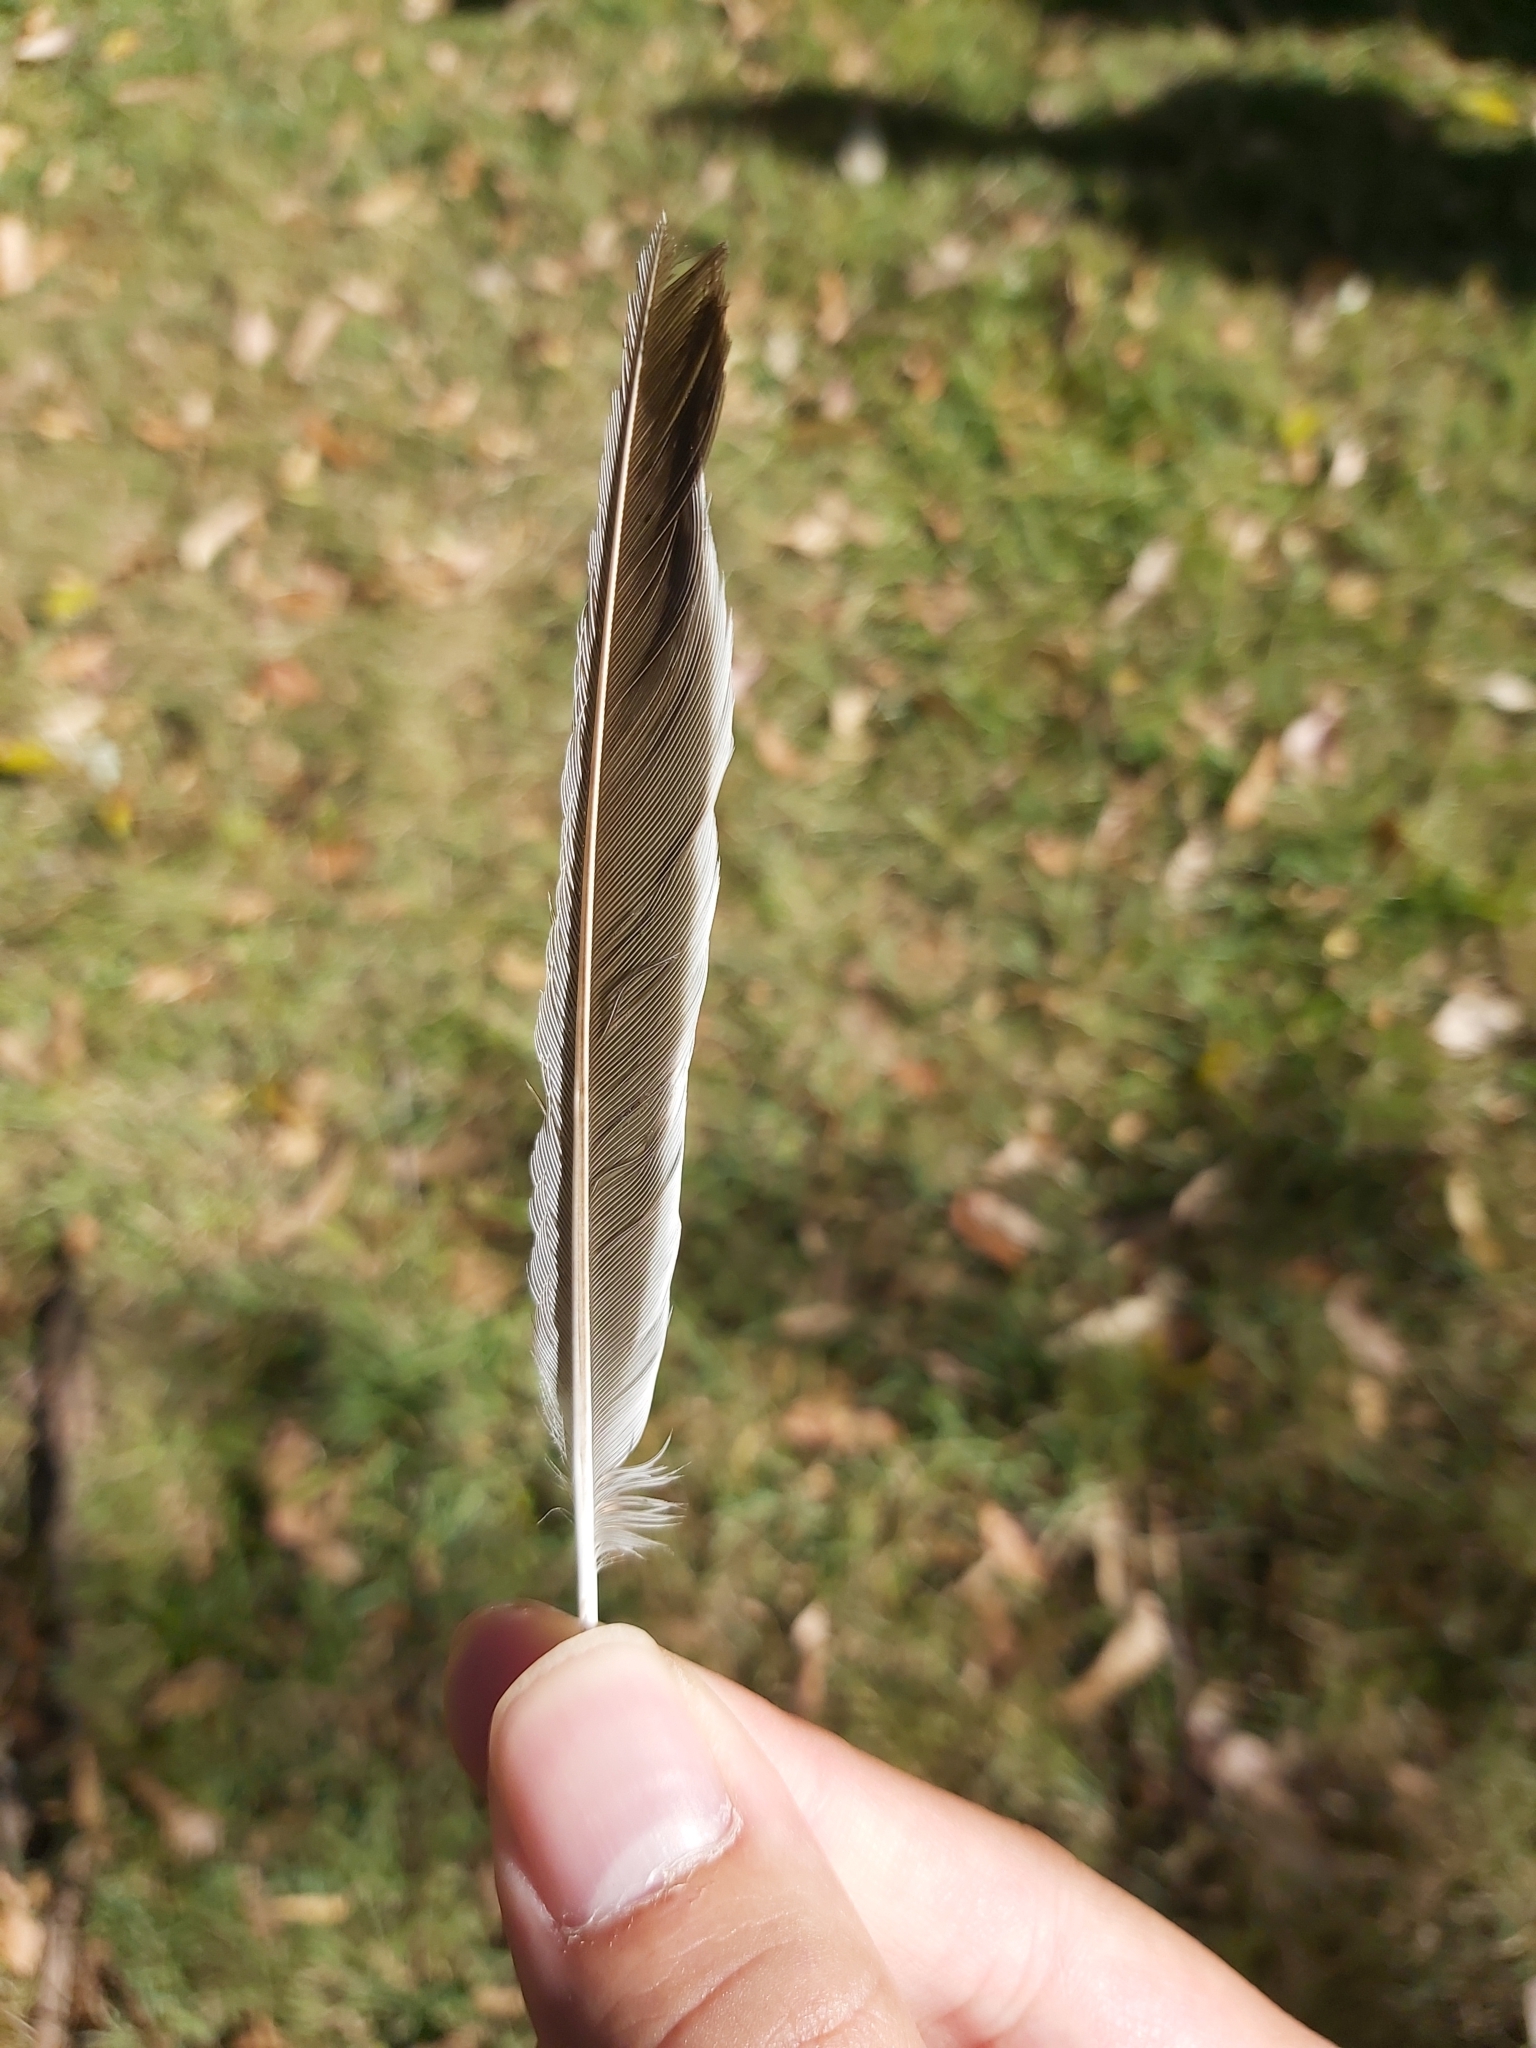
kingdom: Animalia
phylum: Chordata
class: Aves
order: Passeriformes
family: Meliphagidae
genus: Manorina
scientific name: Manorina melanocephala
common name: Noisy miner
